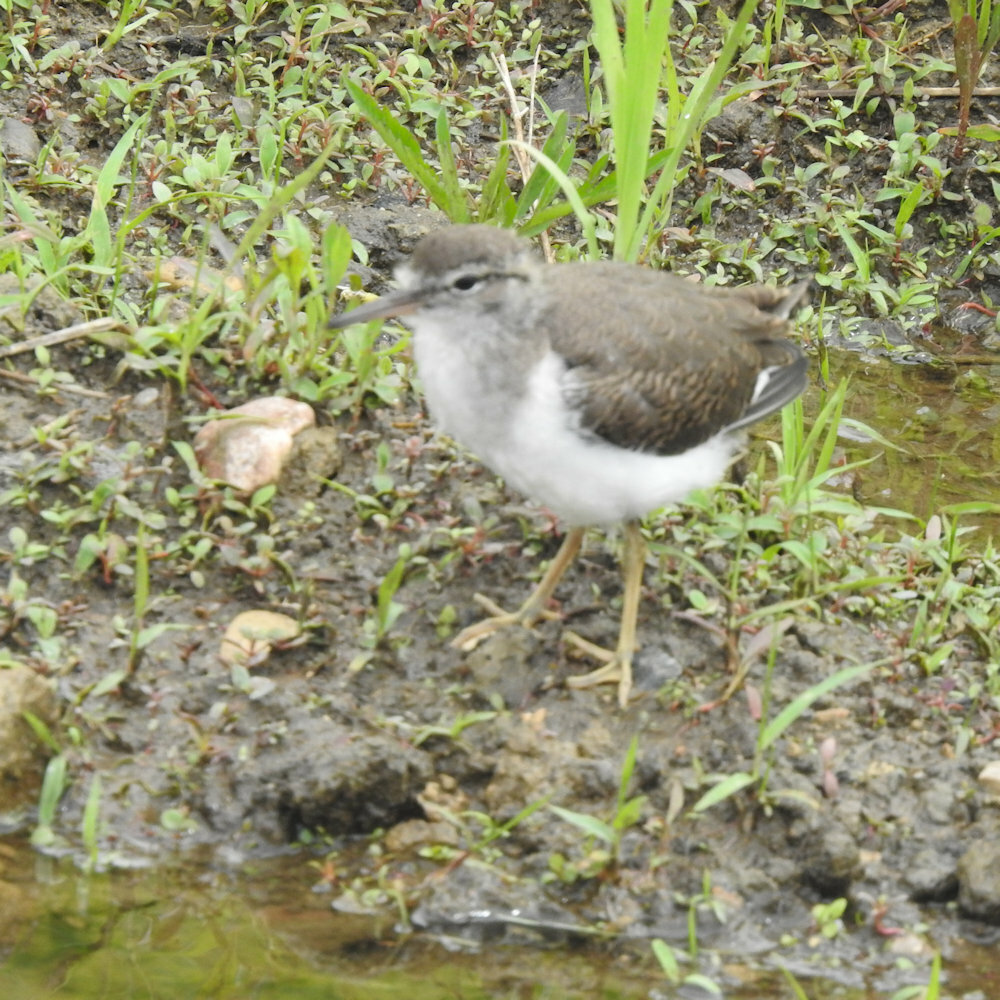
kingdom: Animalia
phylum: Chordata
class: Aves
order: Charadriiformes
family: Scolopacidae
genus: Actitis
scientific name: Actitis macularius
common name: Spotted sandpiper
